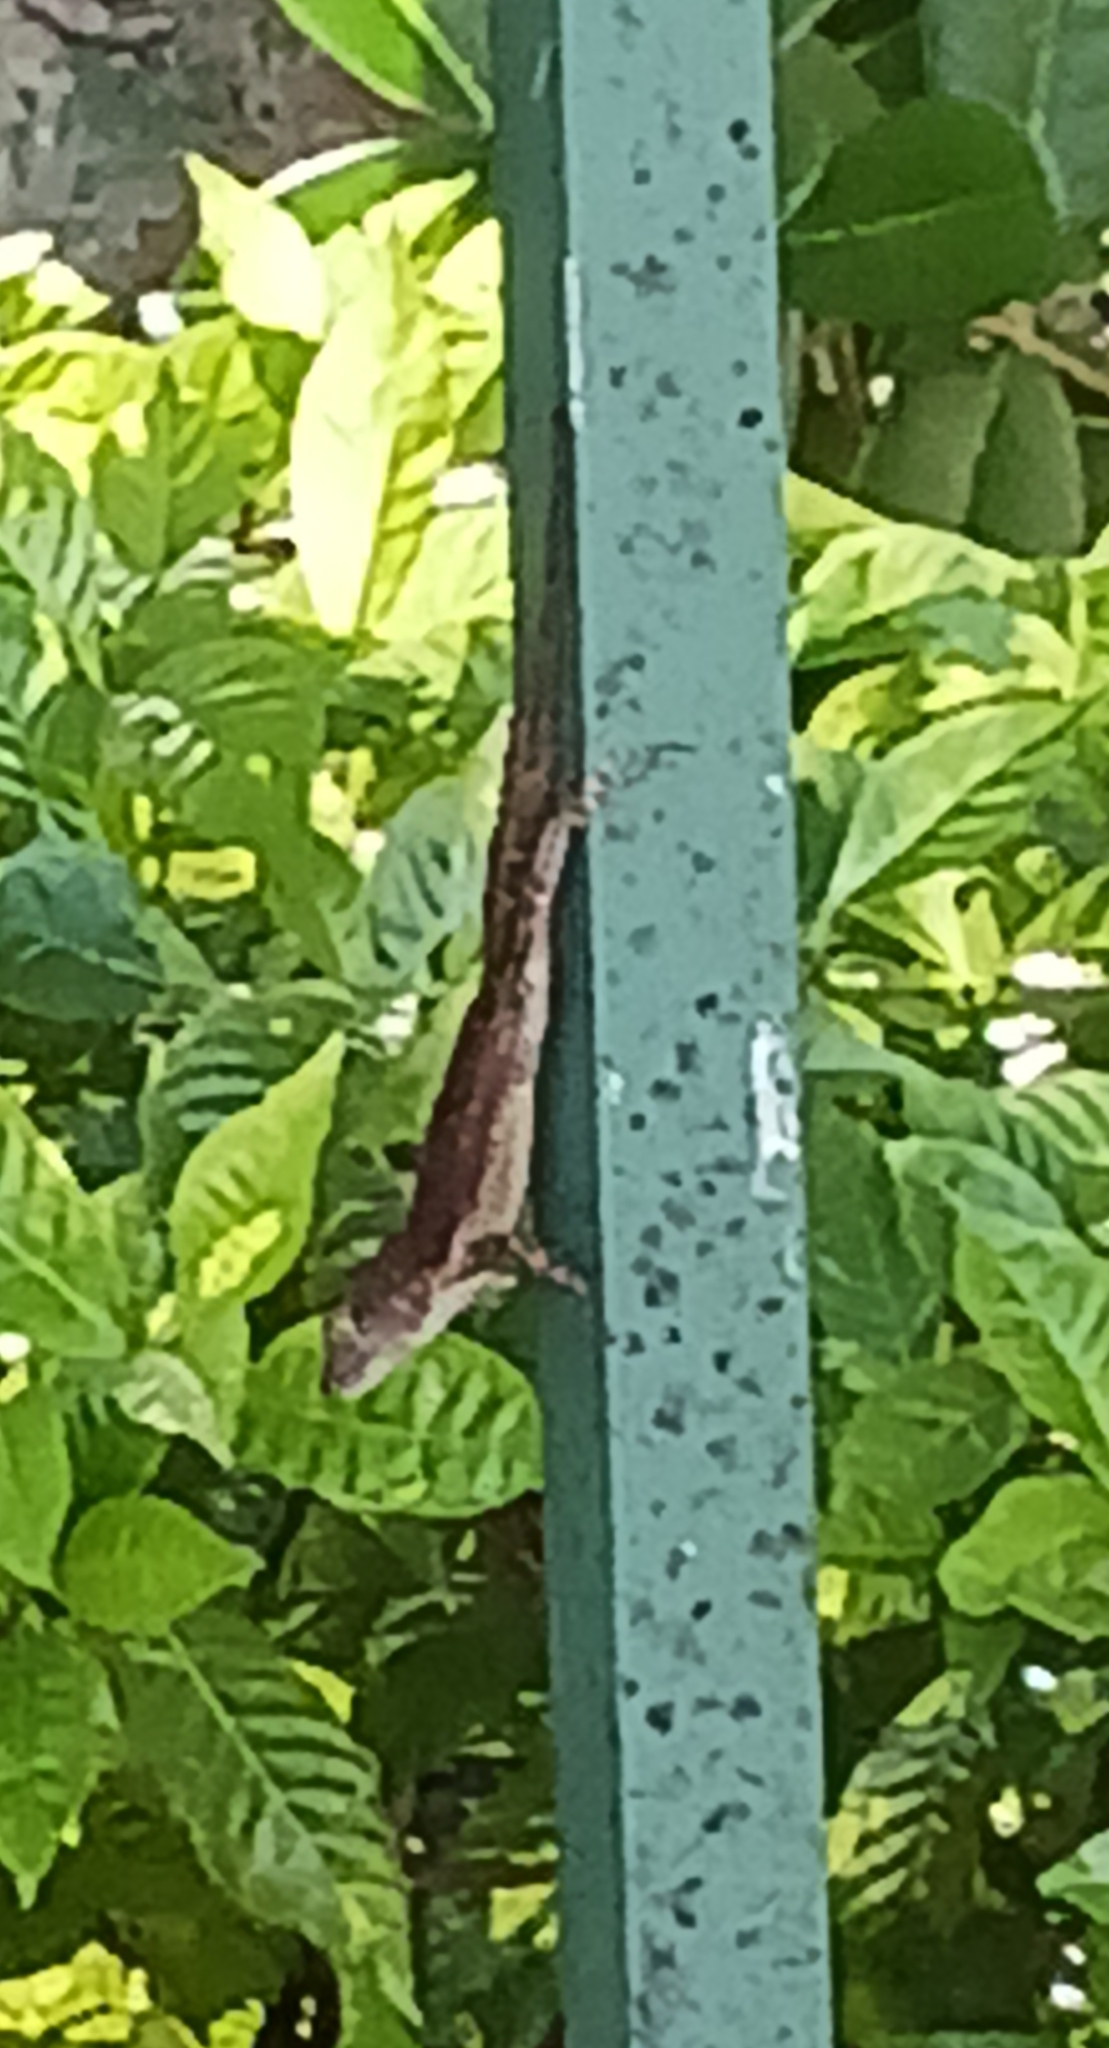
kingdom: Animalia
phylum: Chordata
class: Squamata
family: Dactyloidae
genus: Anolis
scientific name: Anolis cristatellus
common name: Crested anole
